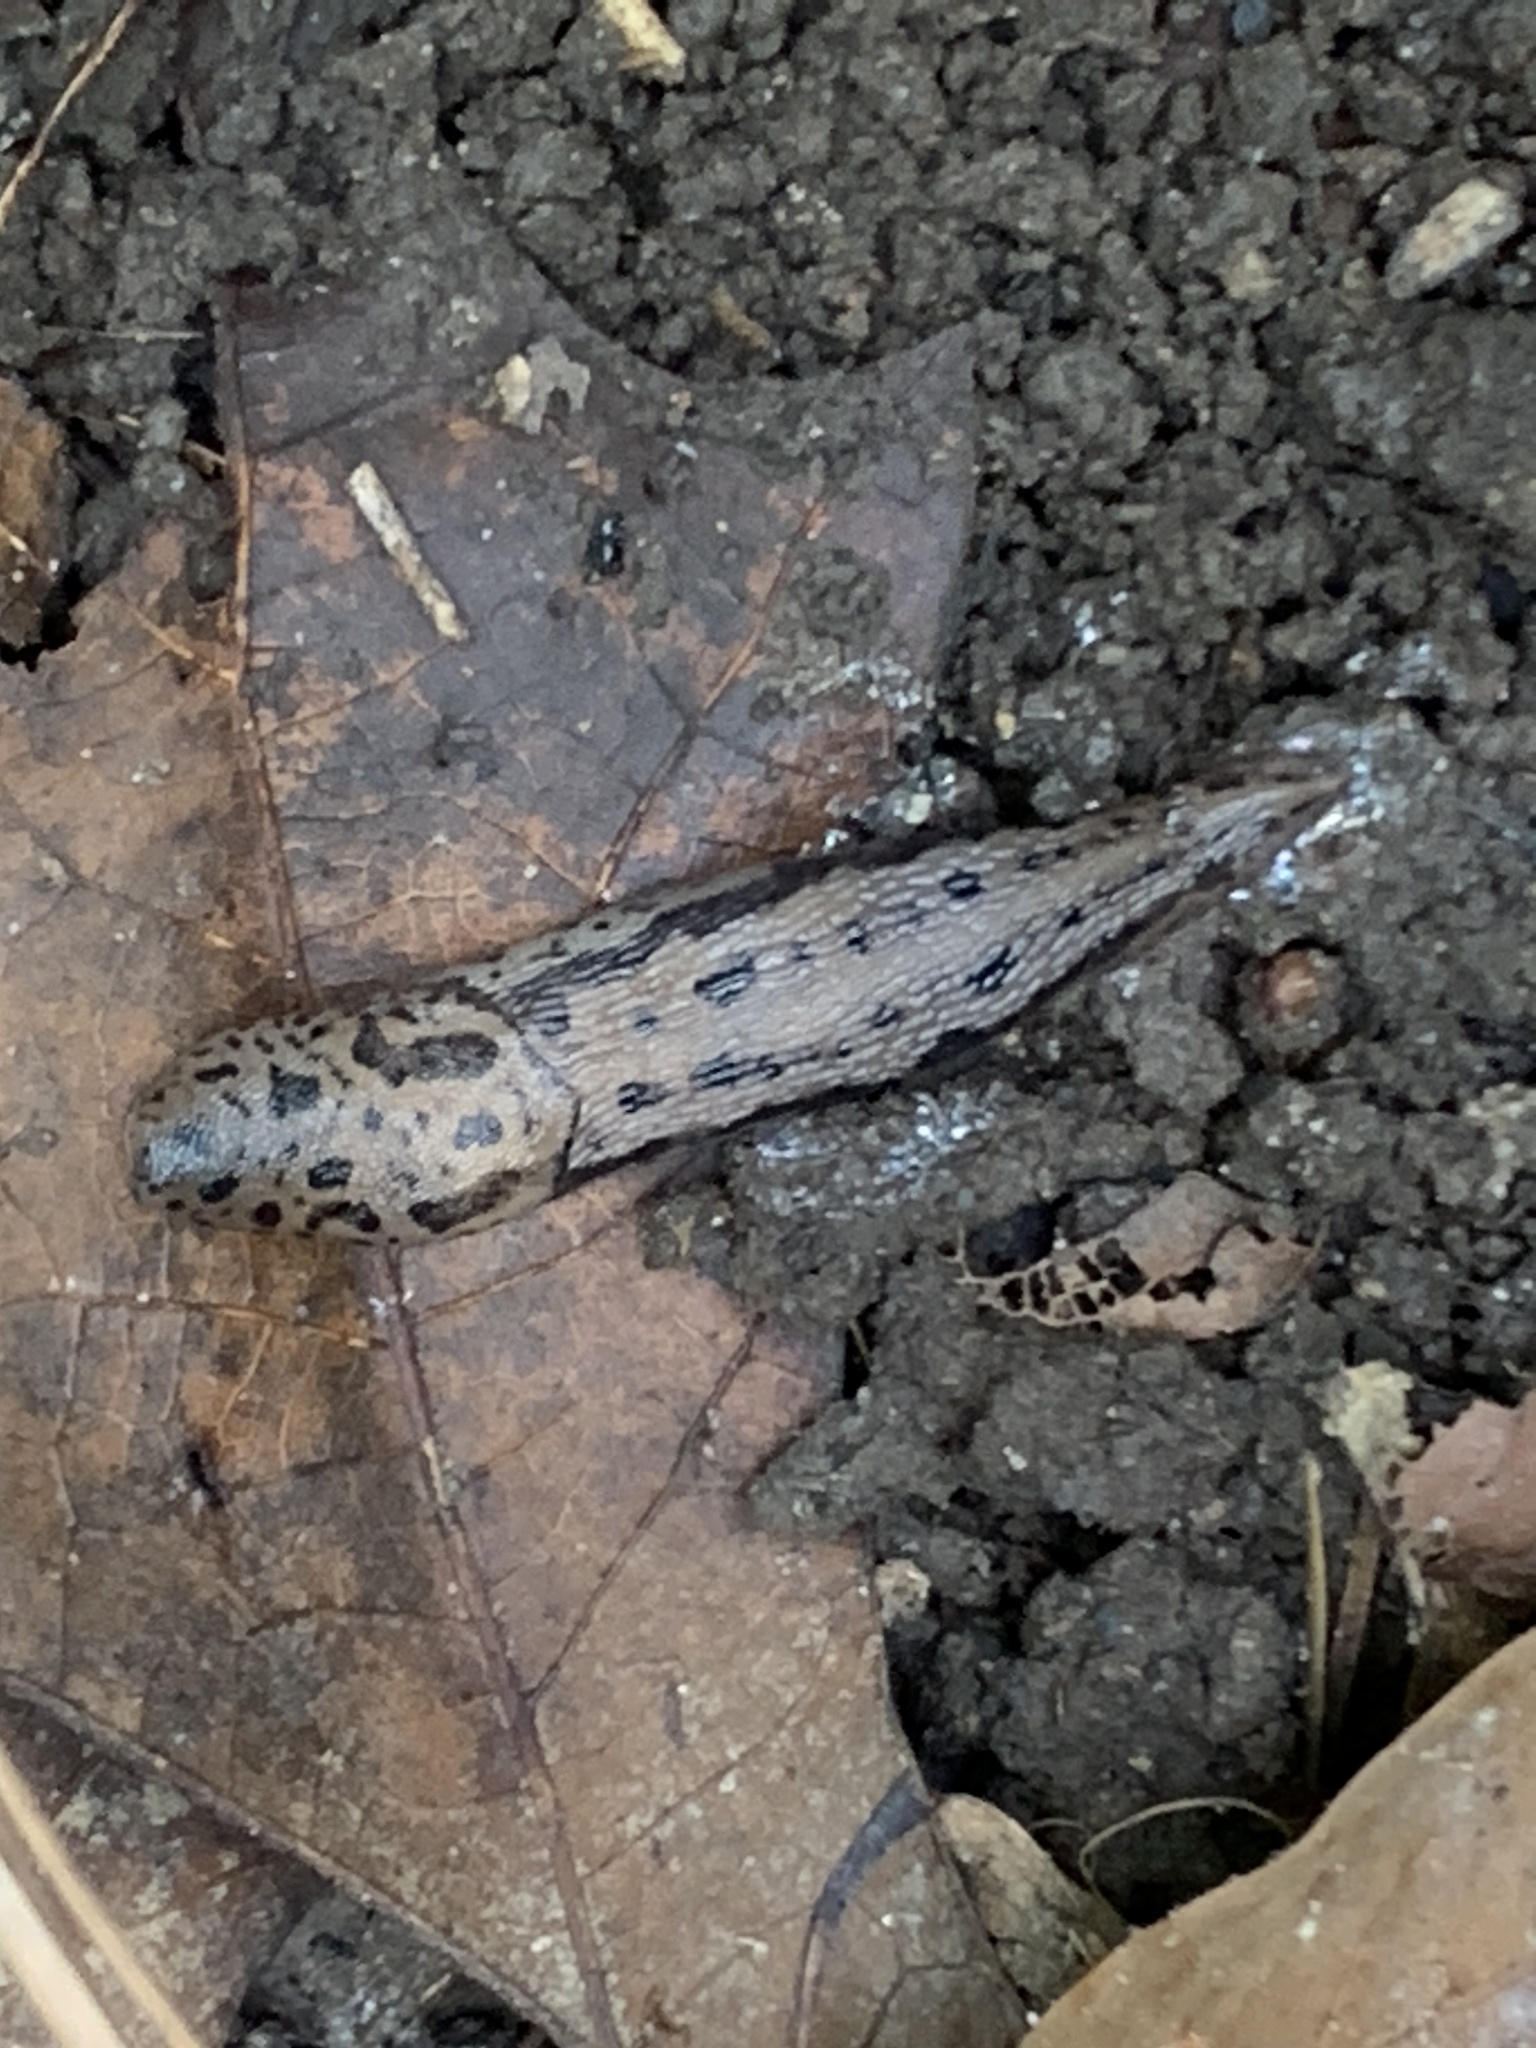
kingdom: Animalia
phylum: Mollusca
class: Gastropoda
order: Stylommatophora
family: Limacidae
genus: Limax
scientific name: Limax maximus
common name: Great grey slug
